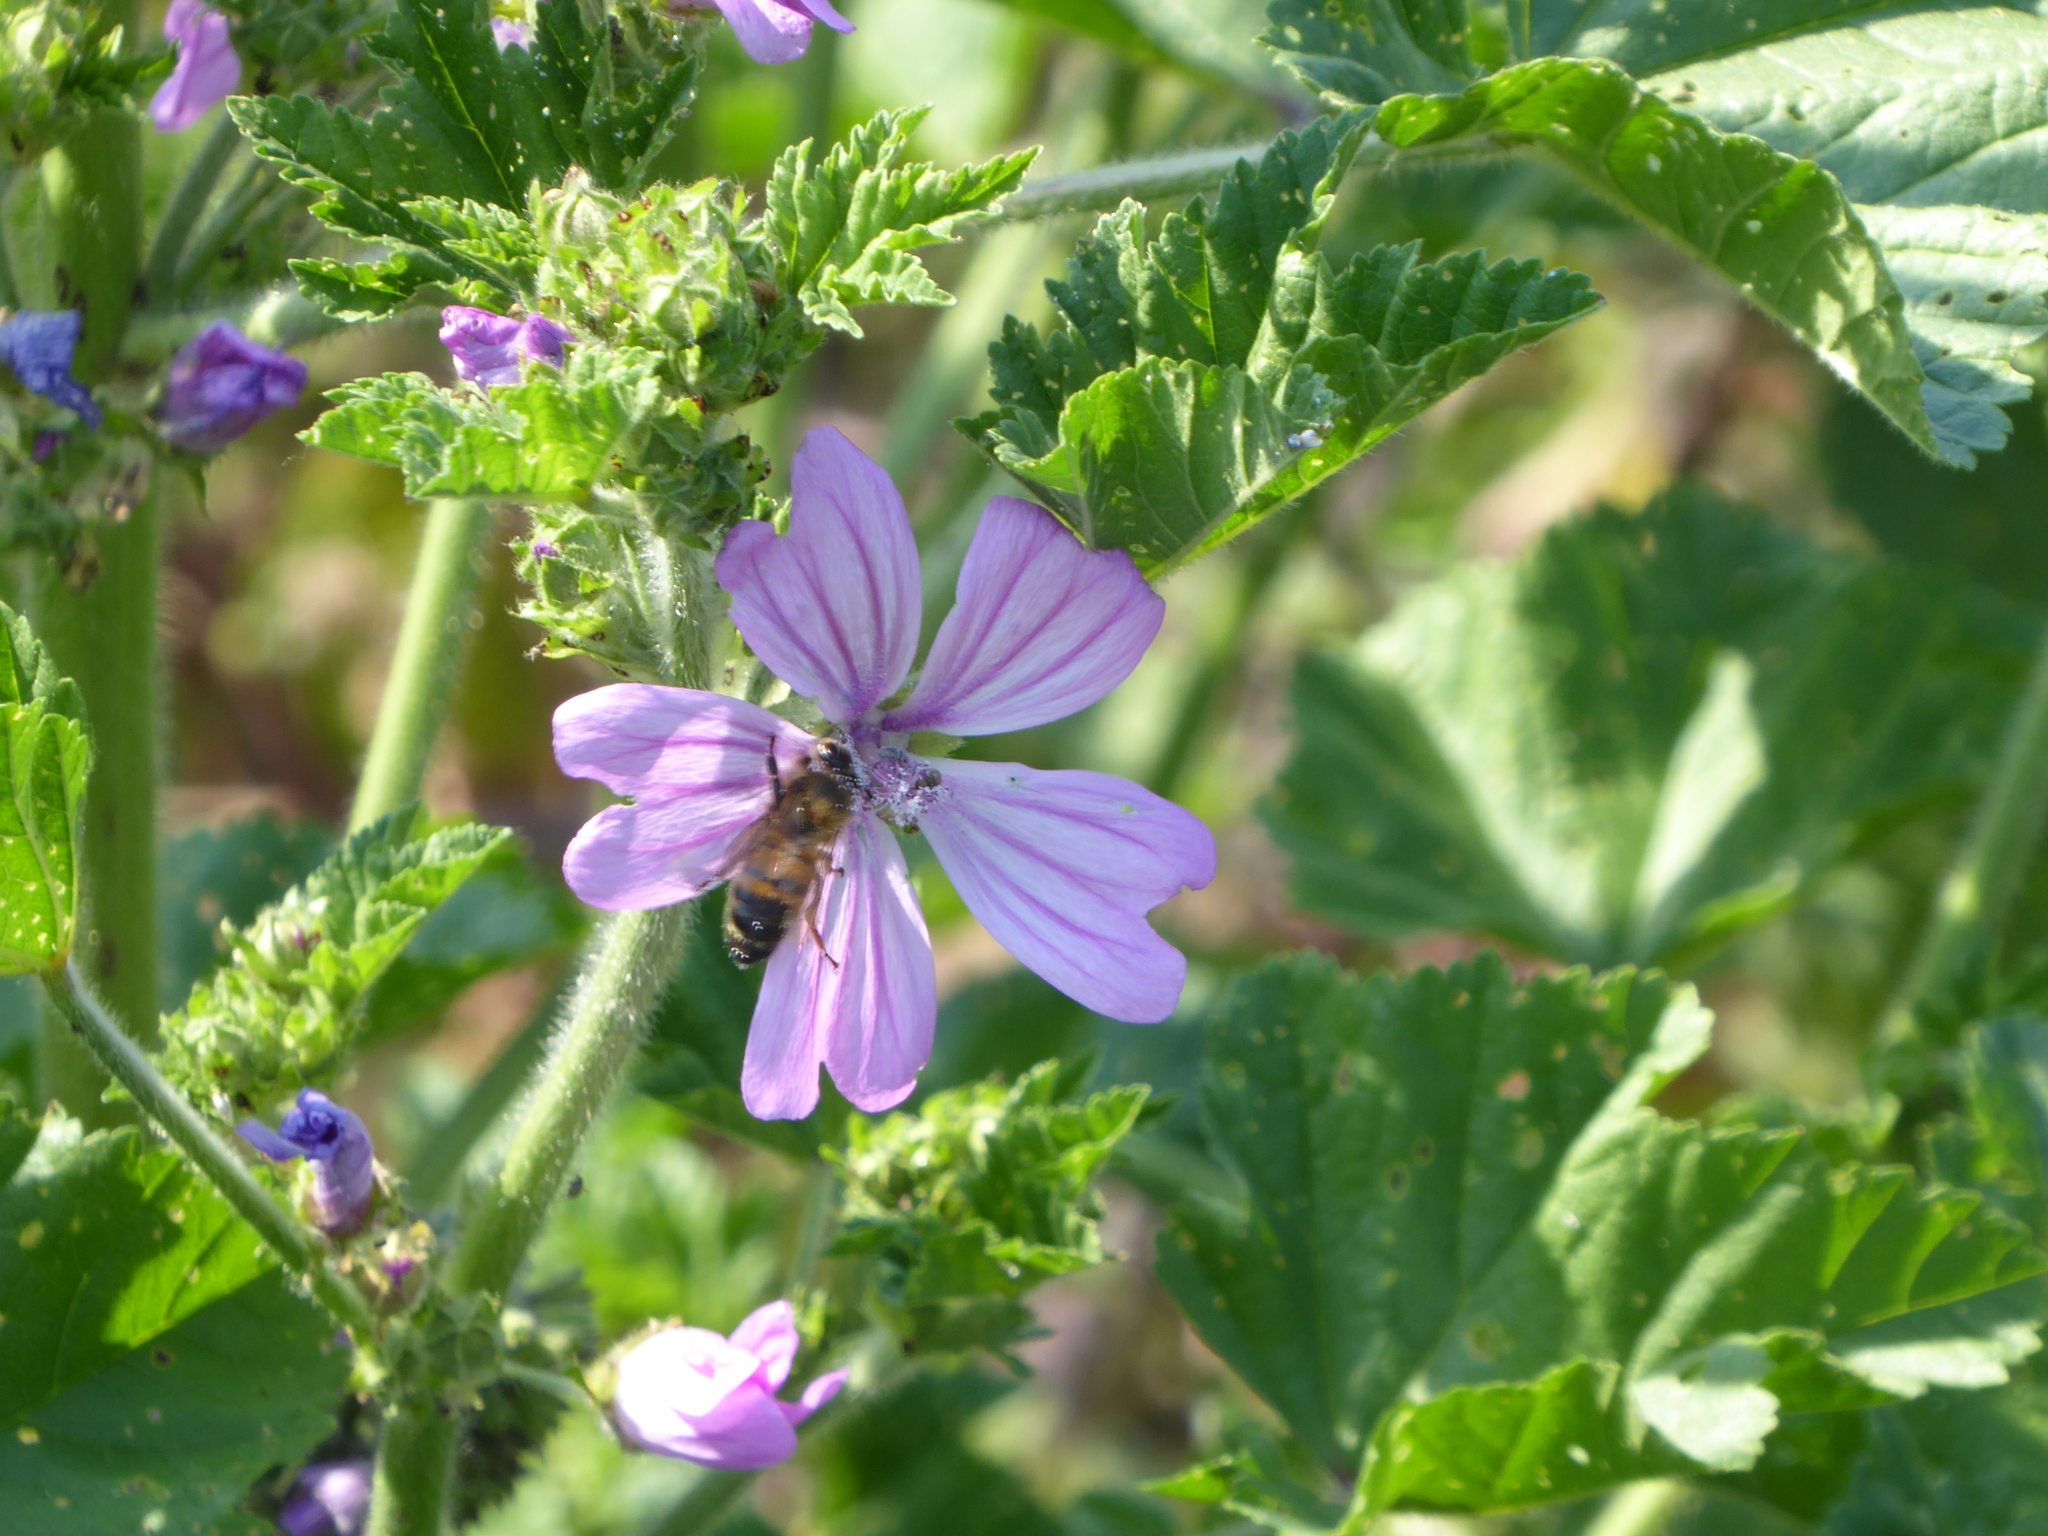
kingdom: Plantae
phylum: Tracheophyta
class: Magnoliopsida
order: Malvales
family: Malvaceae
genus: Malva
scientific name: Malva sylvestris
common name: Common mallow
